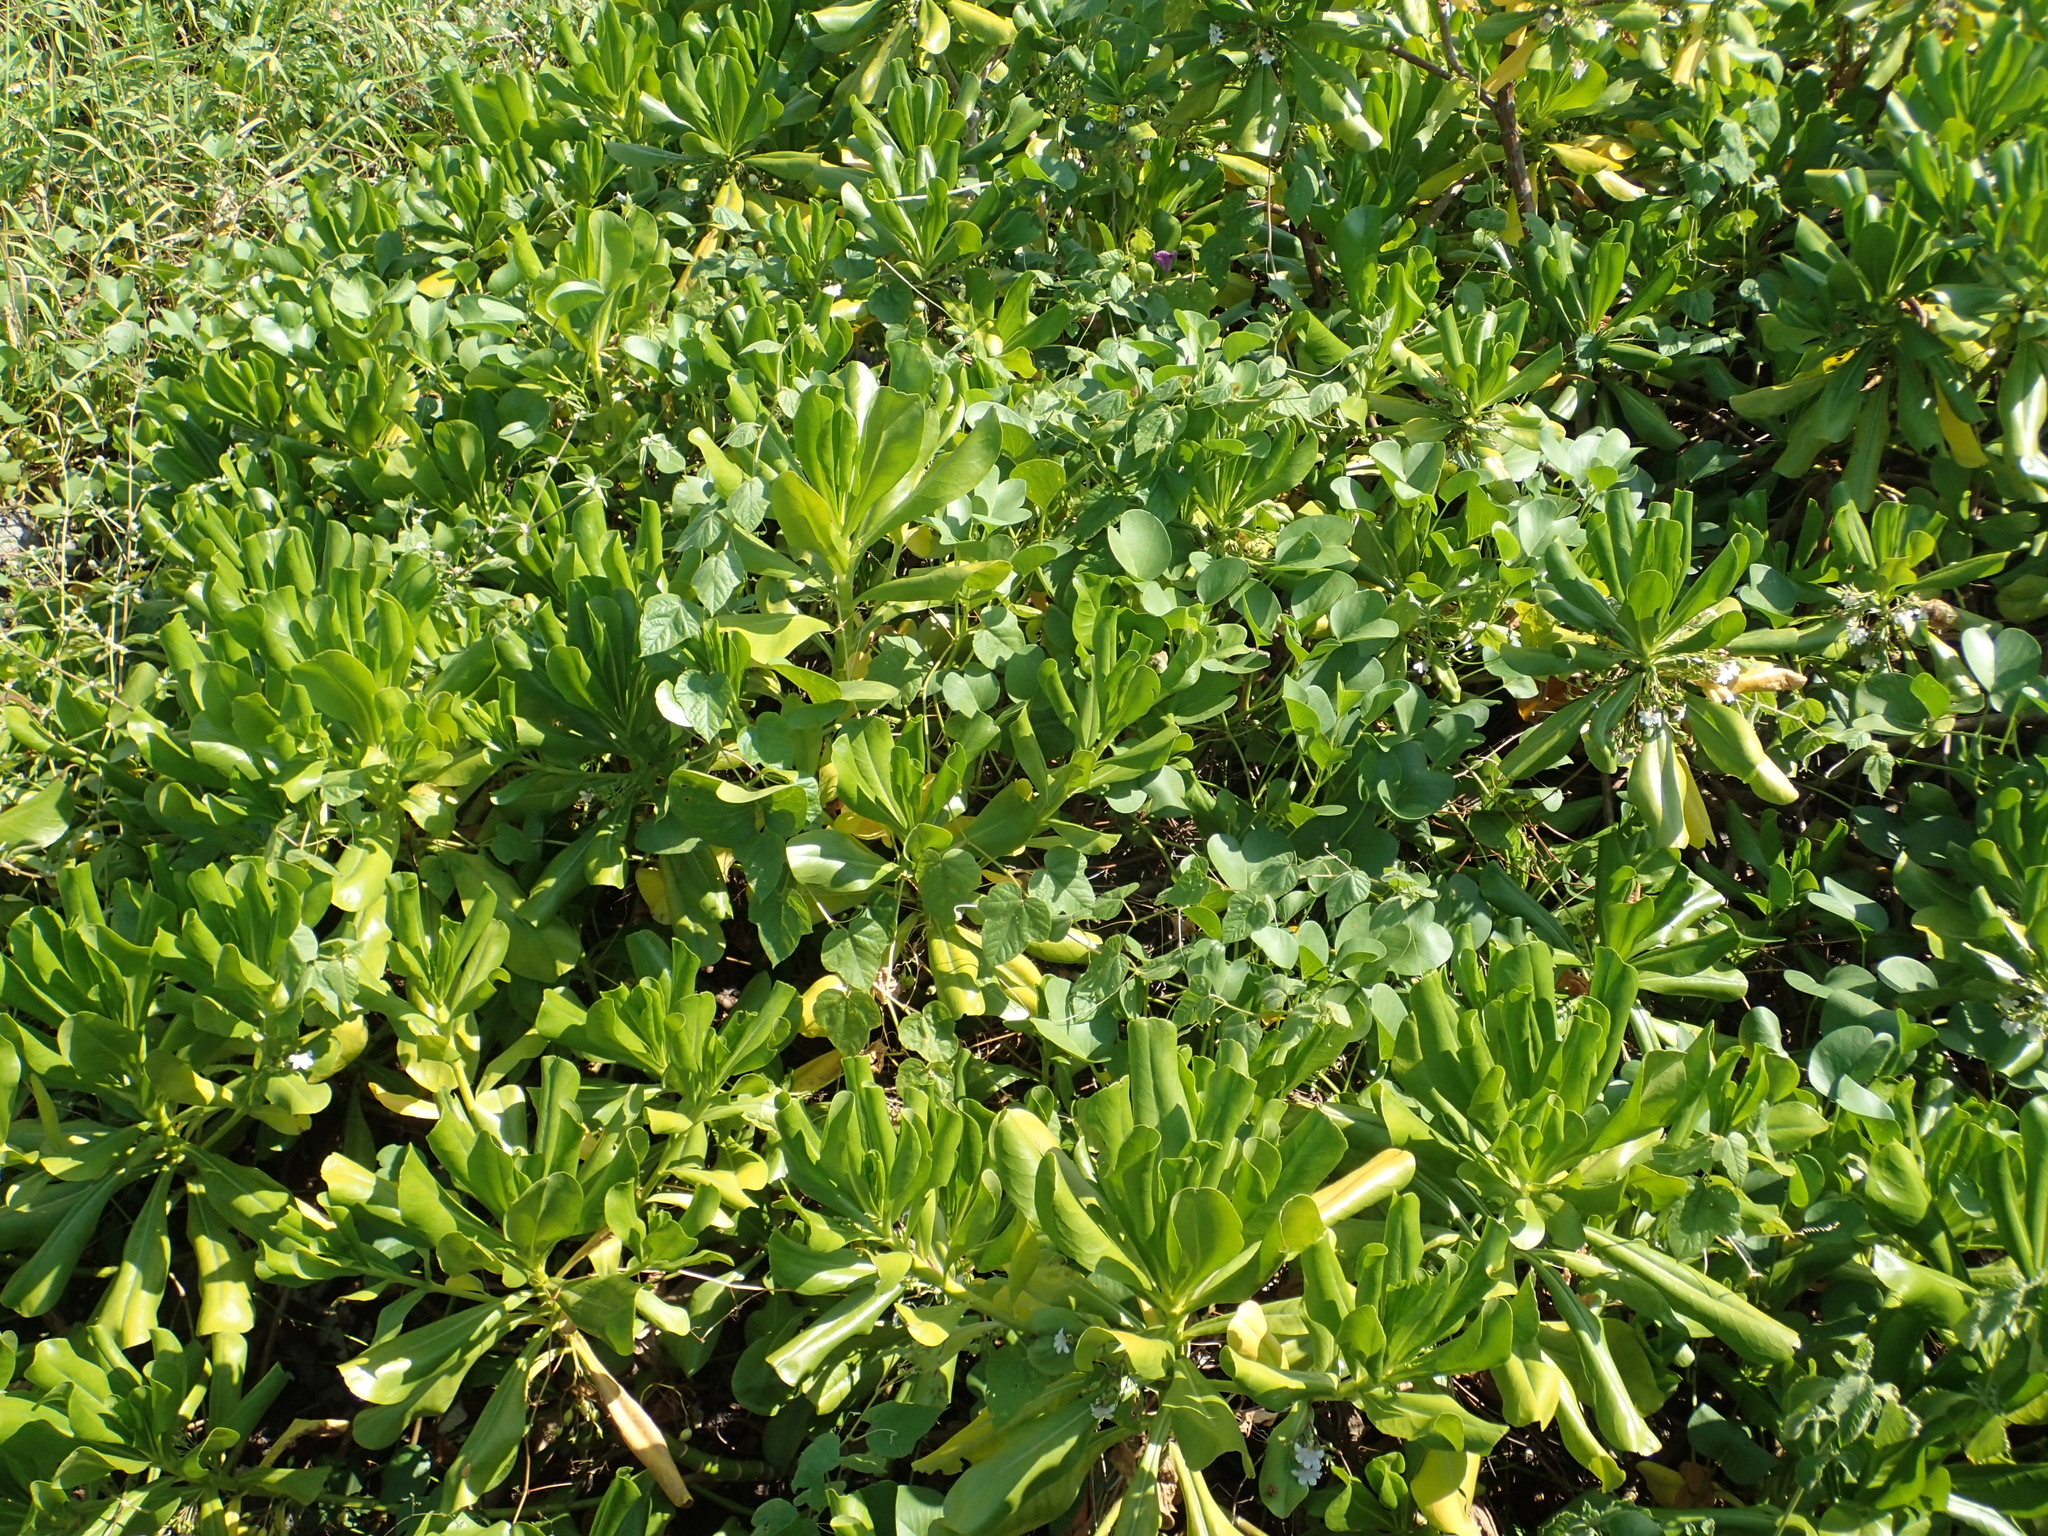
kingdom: Plantae
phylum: Tracheophyta
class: Magnoliopsida
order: Asterales
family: Goodeniaceae
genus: Scaevola
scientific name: Scaevola taccada
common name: Sea lettucetree
